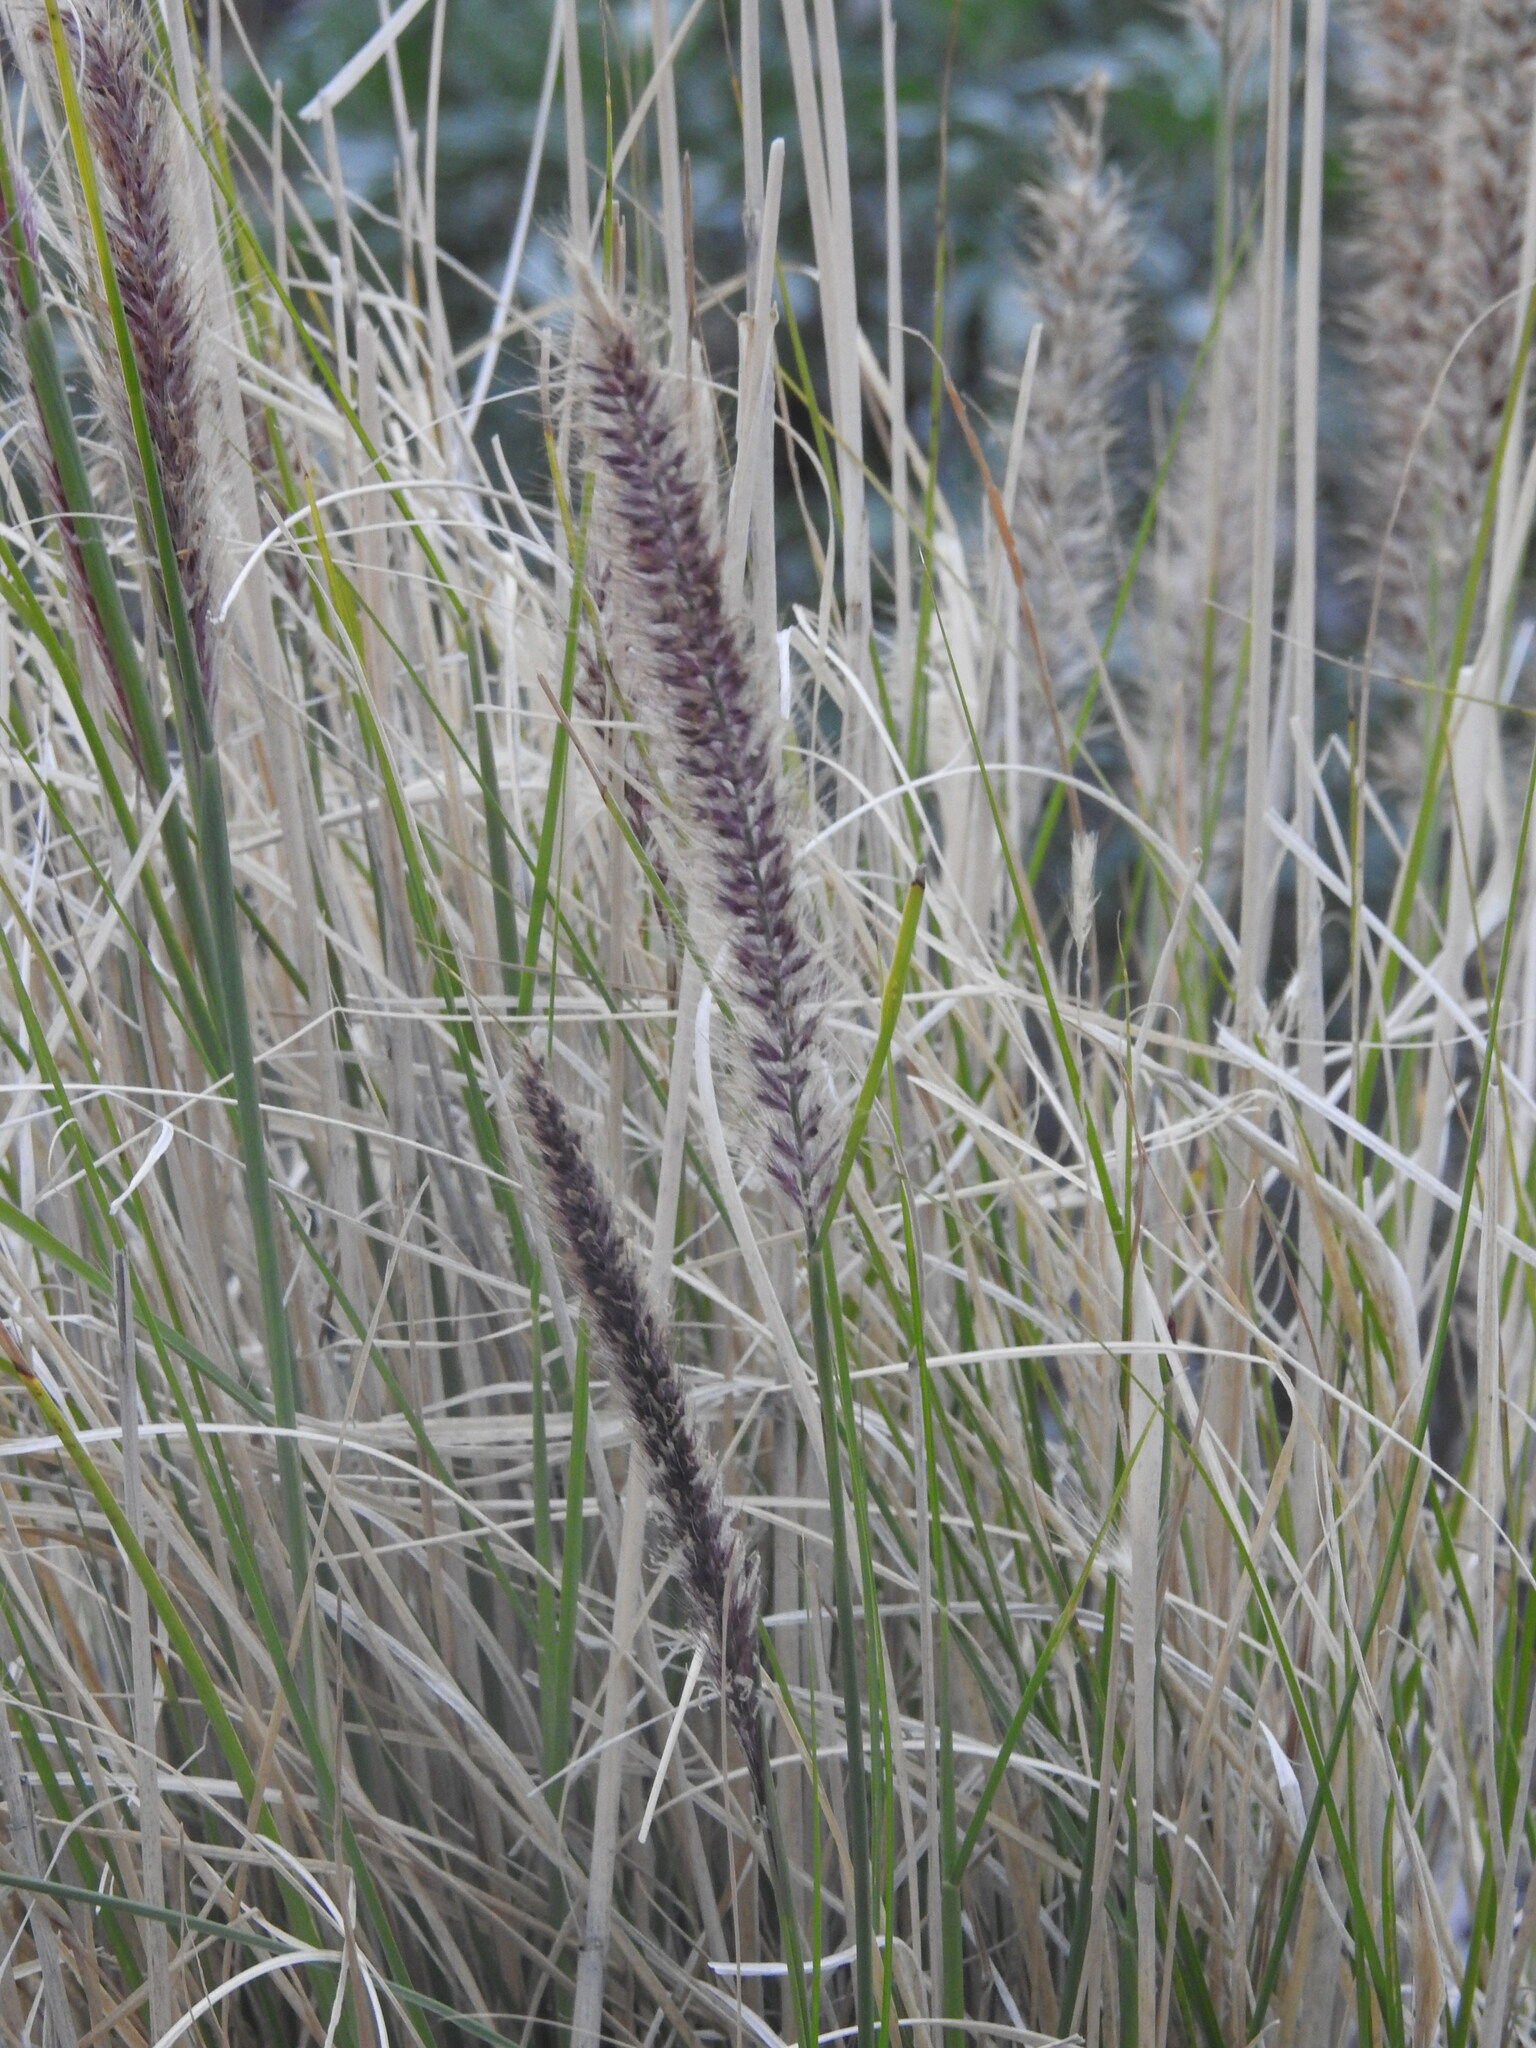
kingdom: Plantae
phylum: Tracheophyta
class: Liliopsida
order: Poales
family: Poaceae
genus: Cenchrus
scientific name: Cenchrus setaceus
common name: Crimson fountaingrass
